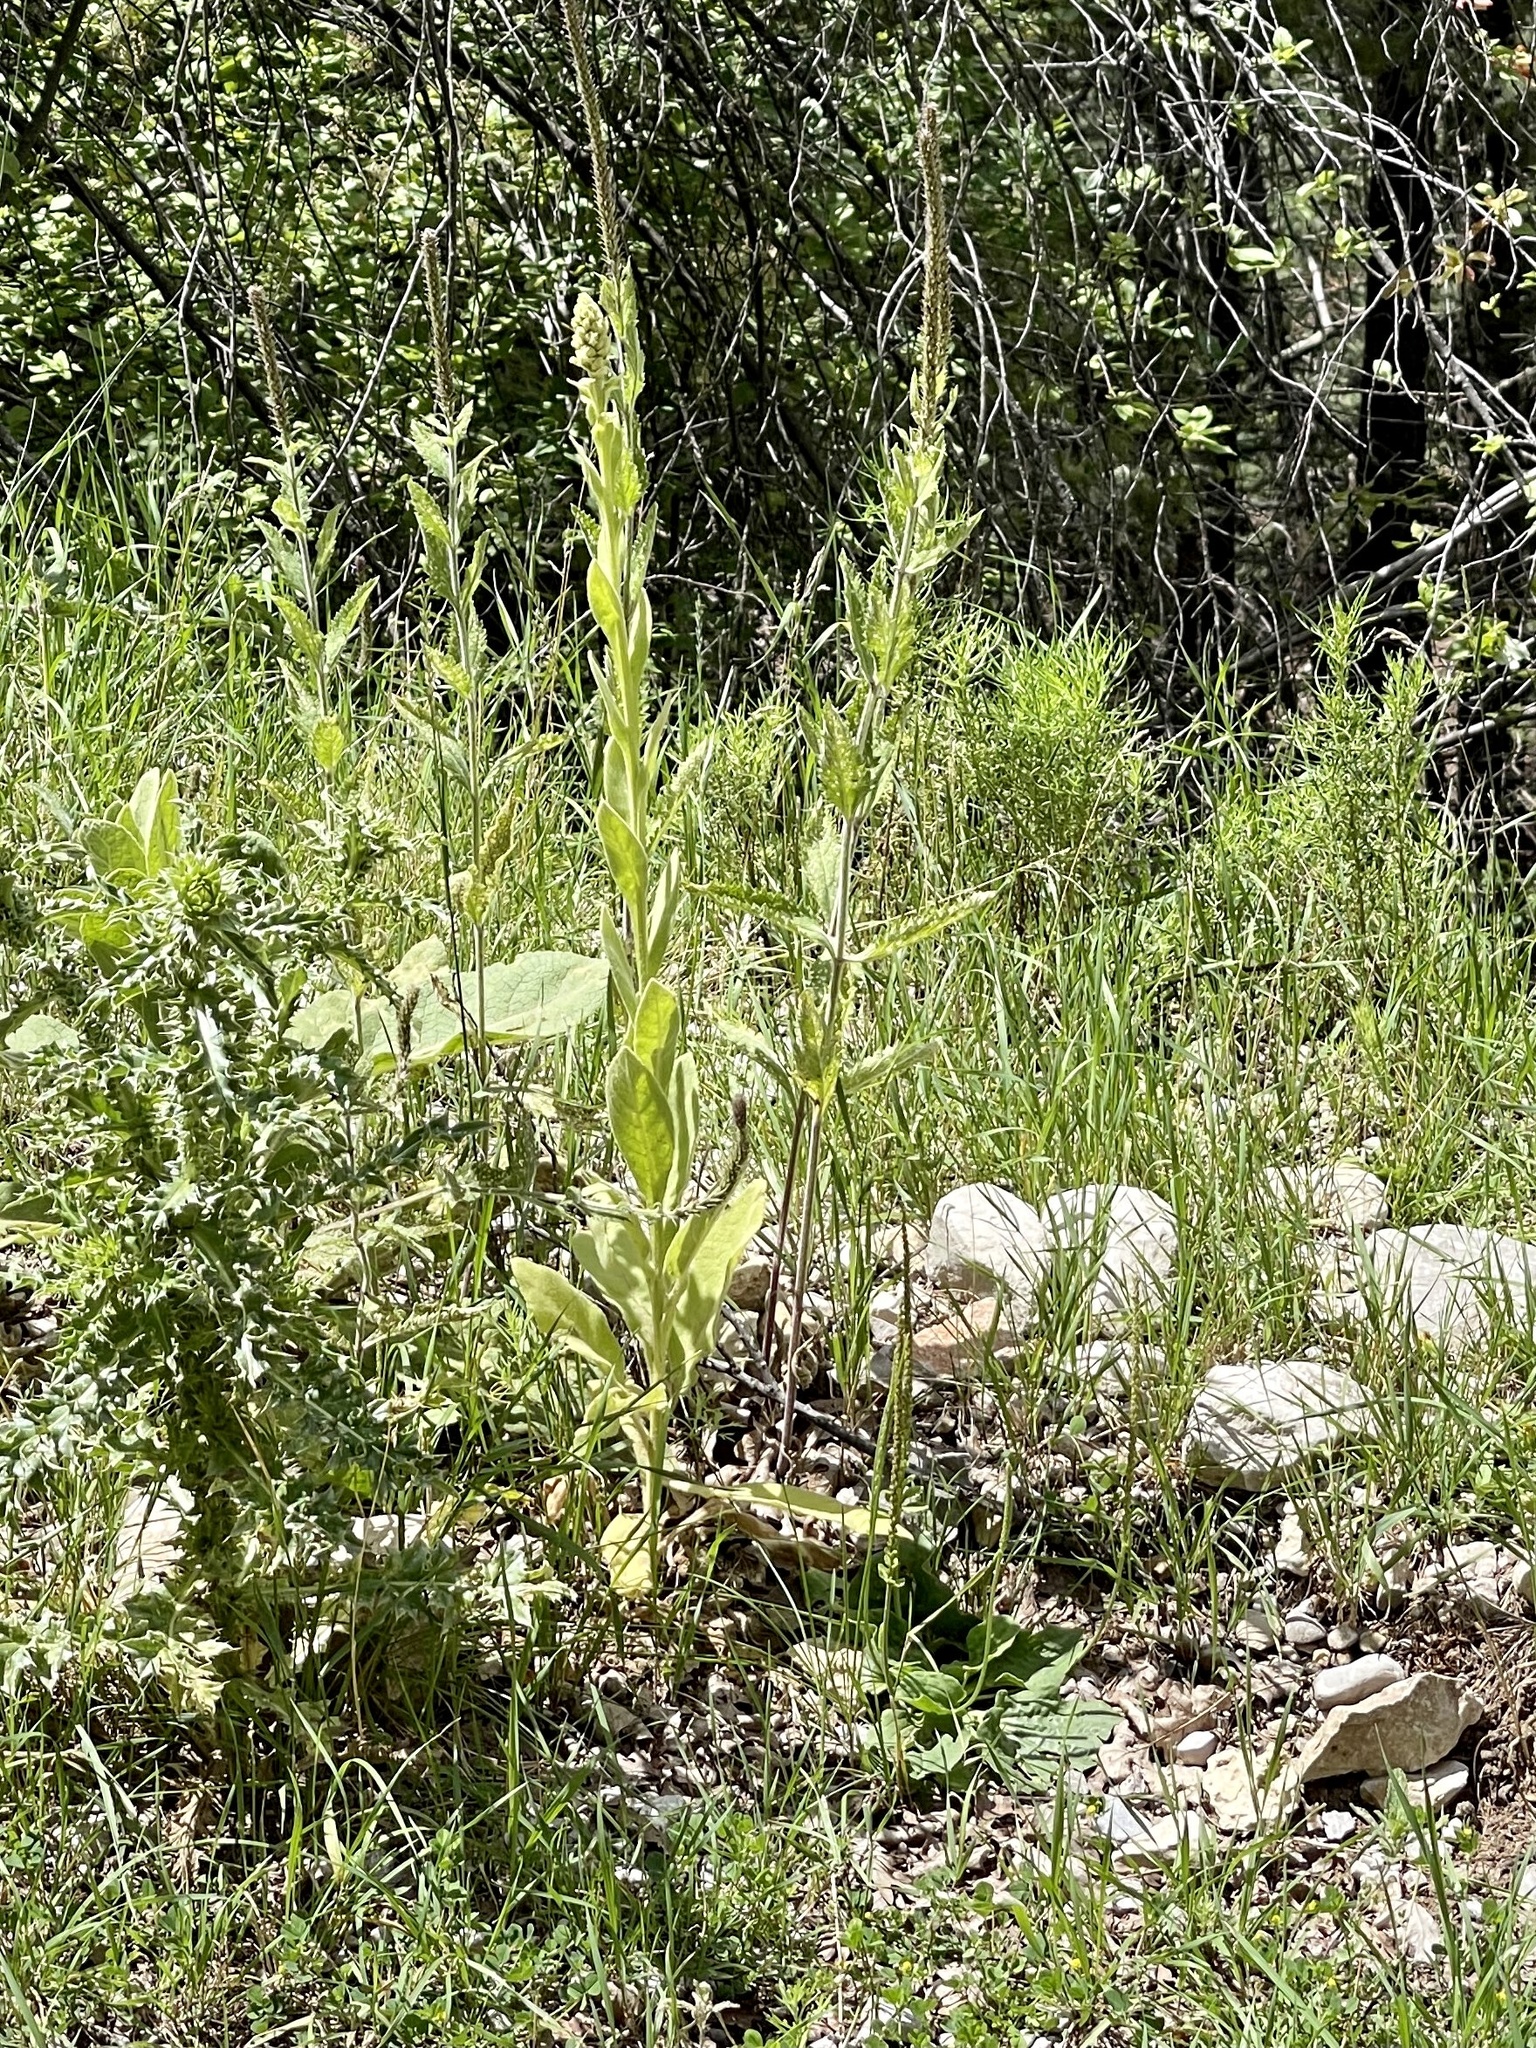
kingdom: Plantae
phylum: Tracheophyta
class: Magnoliopsida
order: Lamiales
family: Scrophulariaceae
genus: Verbascum
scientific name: Verbascum thapsus
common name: Common mullein
